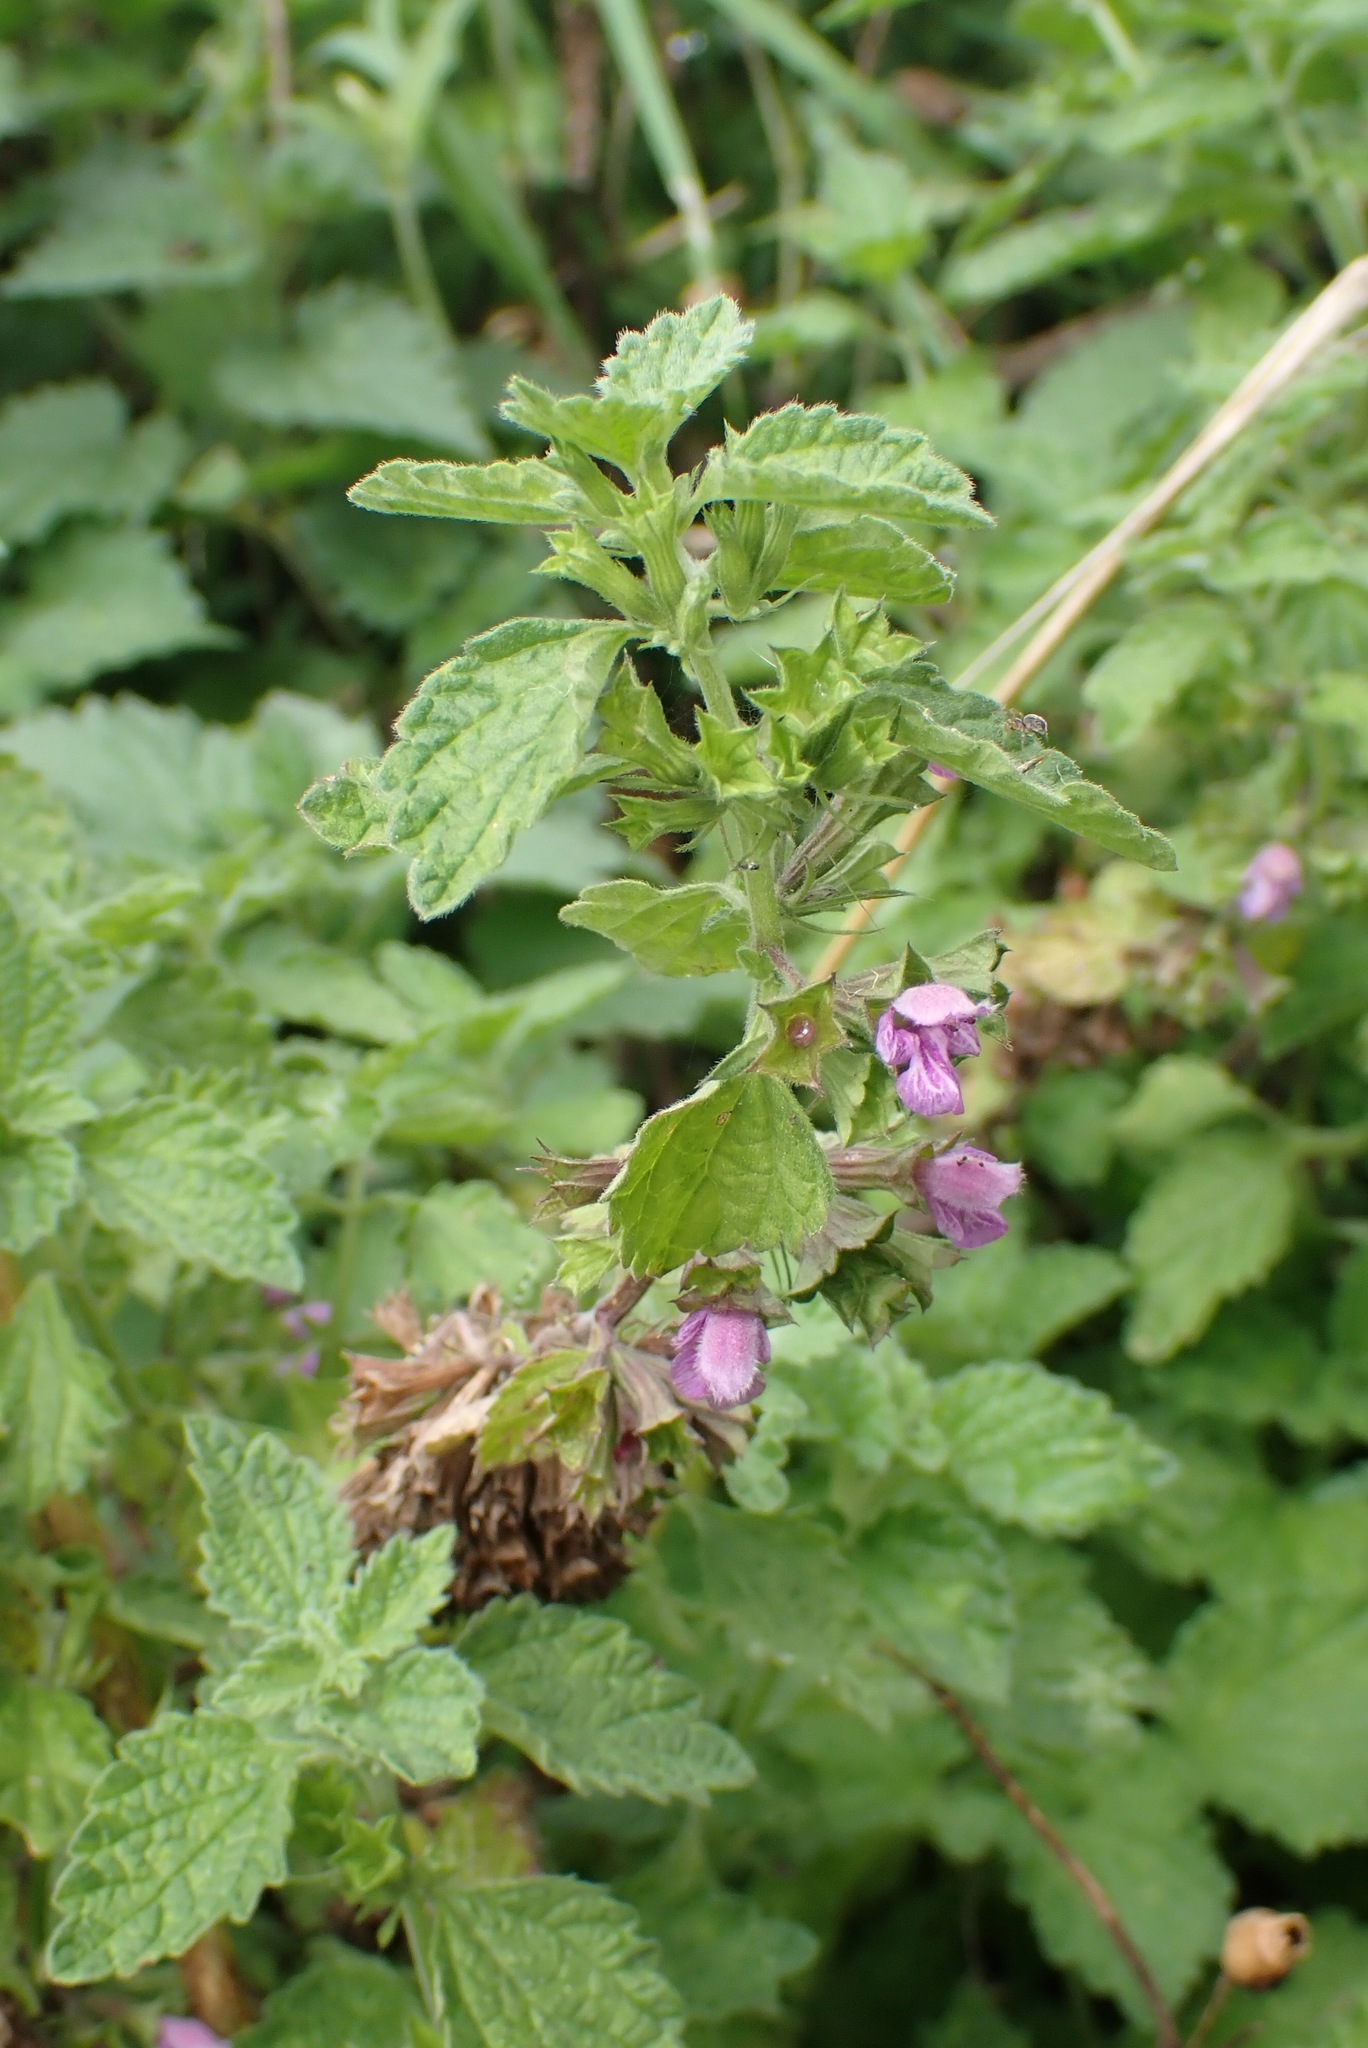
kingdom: Plantae
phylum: Tracheophyta
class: Magnoliopsida
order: Lamiales
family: Lamiaceae
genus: Ballota
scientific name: Ballota nigra
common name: Black horehound
